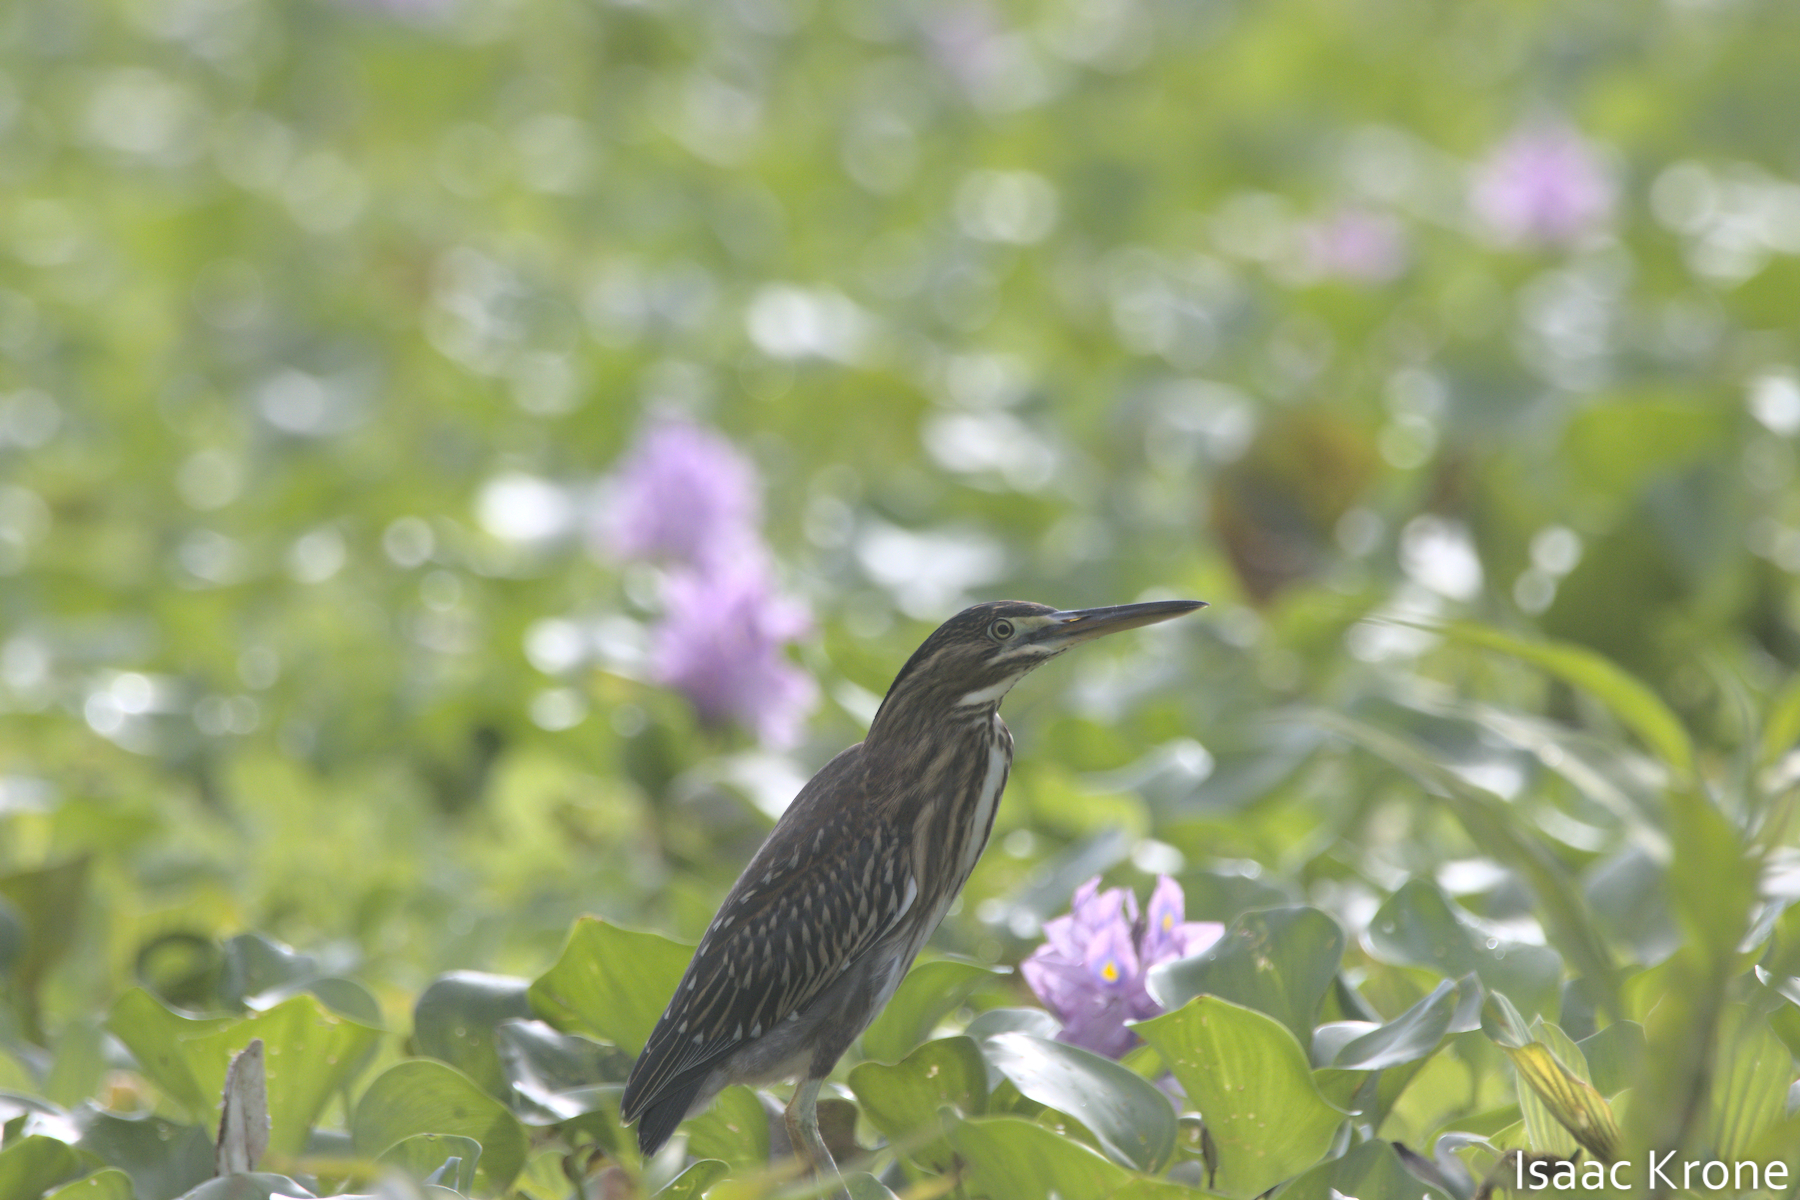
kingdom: Animalia
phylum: Chordata
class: Aves
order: Pelecaniformes
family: Ardeidae
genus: Butorides
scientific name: Butorides striata
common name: Striated heron
